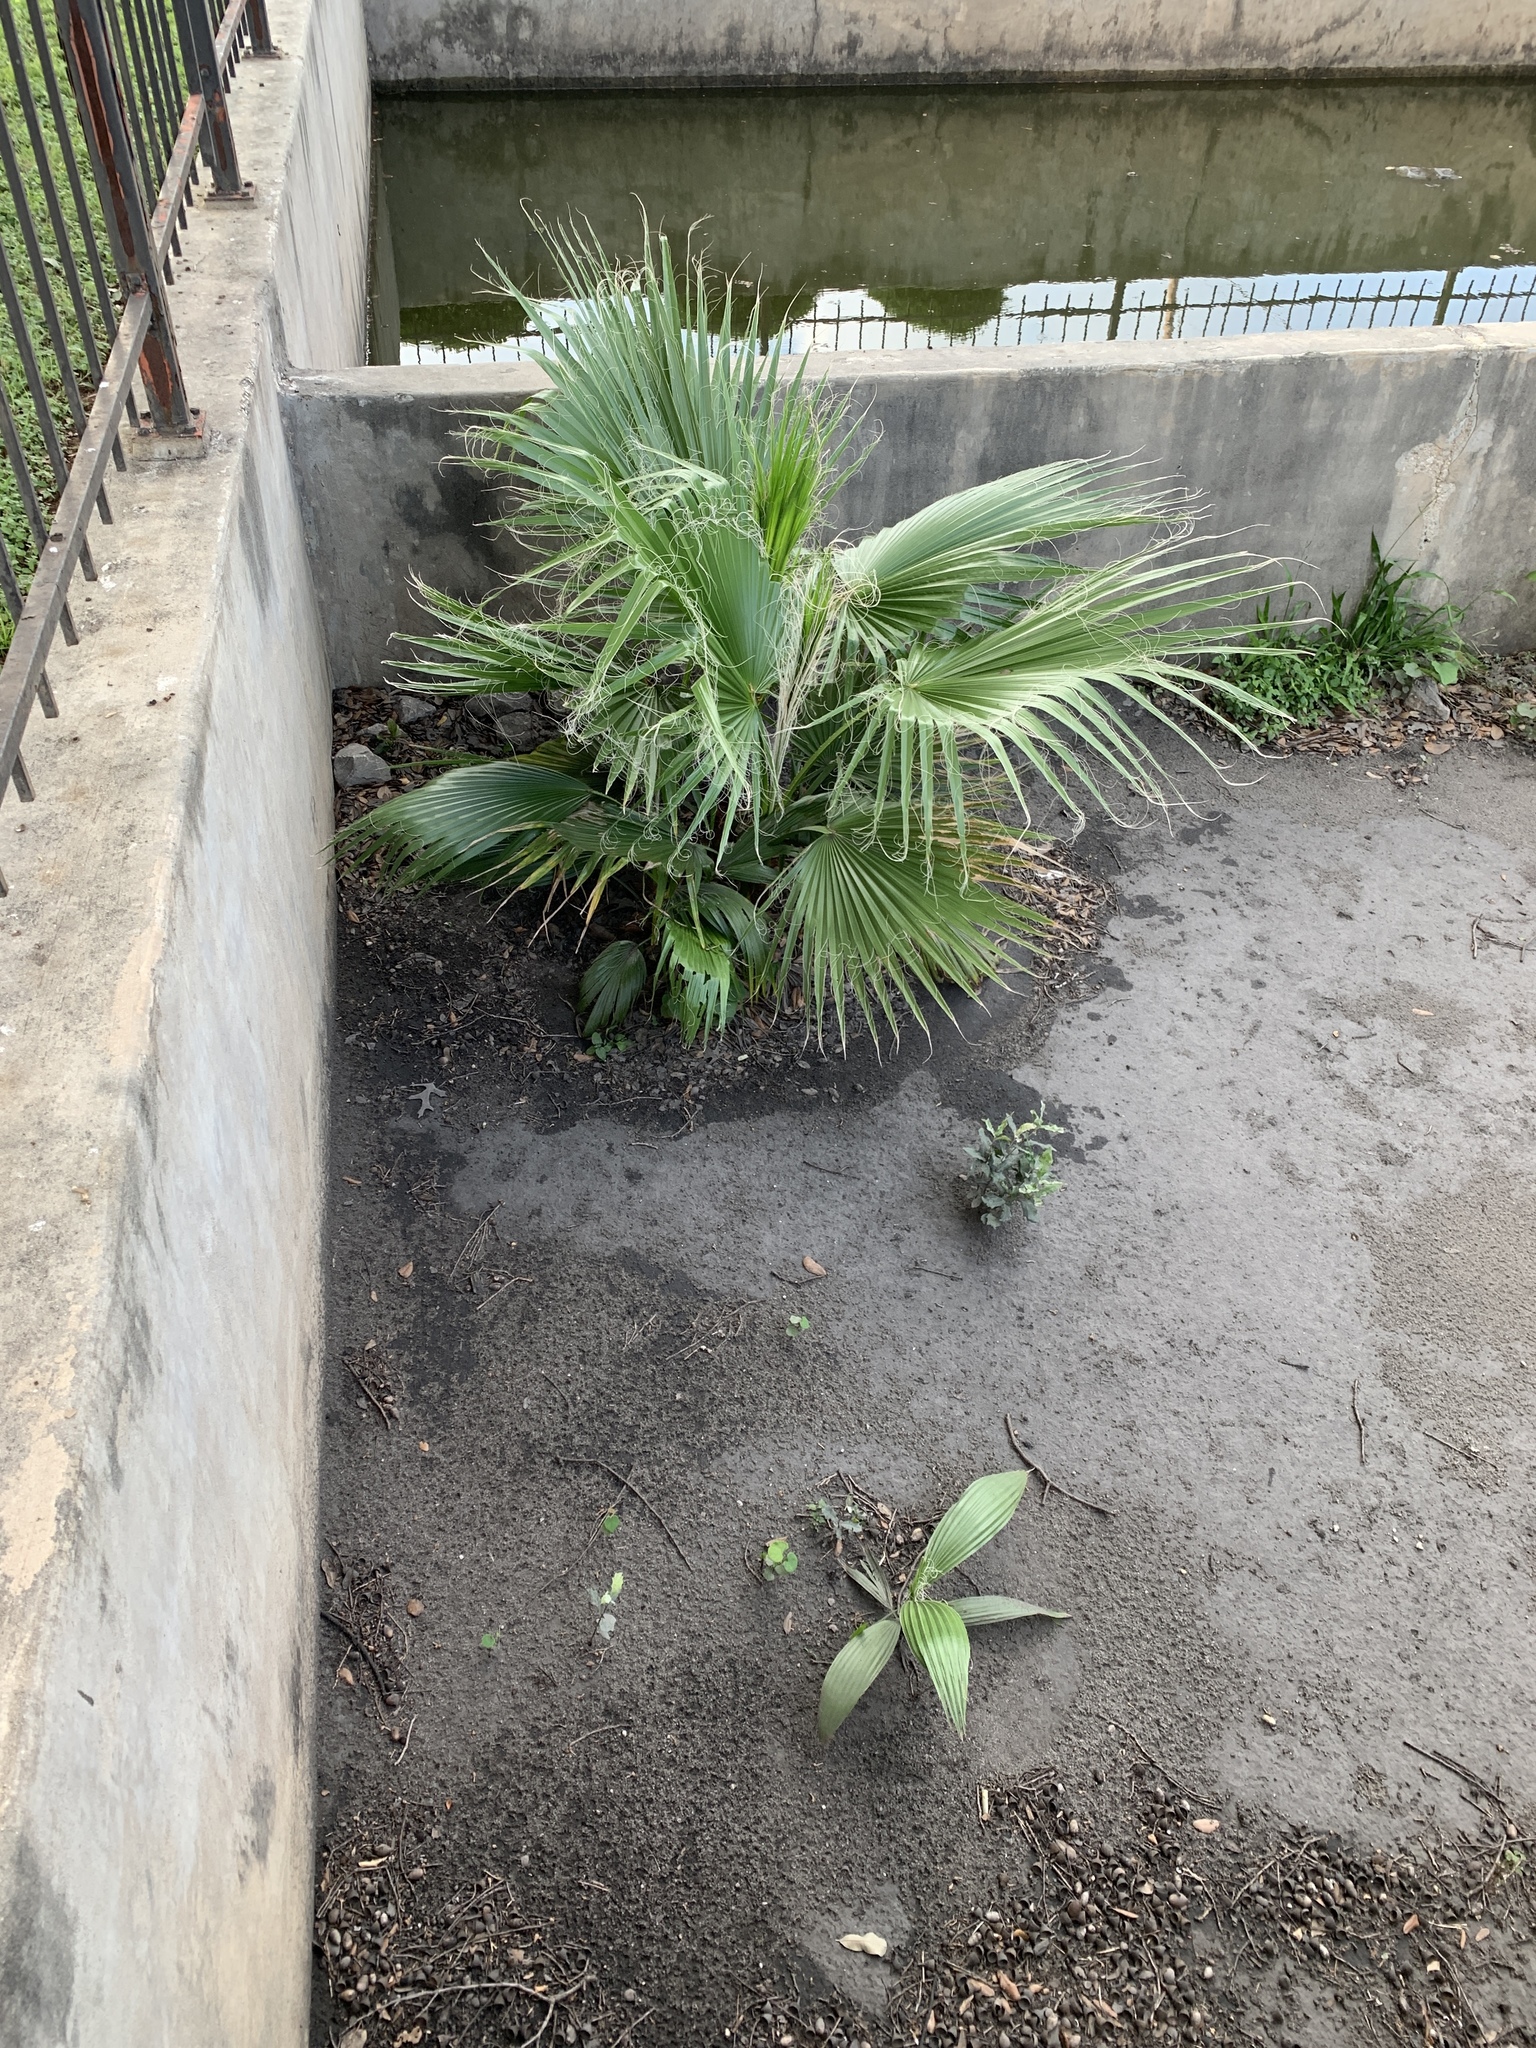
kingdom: Plantae
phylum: Tracheophyta
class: Liliopsida
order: Arecales
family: Arecaceae
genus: Washingtonia
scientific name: Washingtonia robusta
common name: Mexican fan palm
